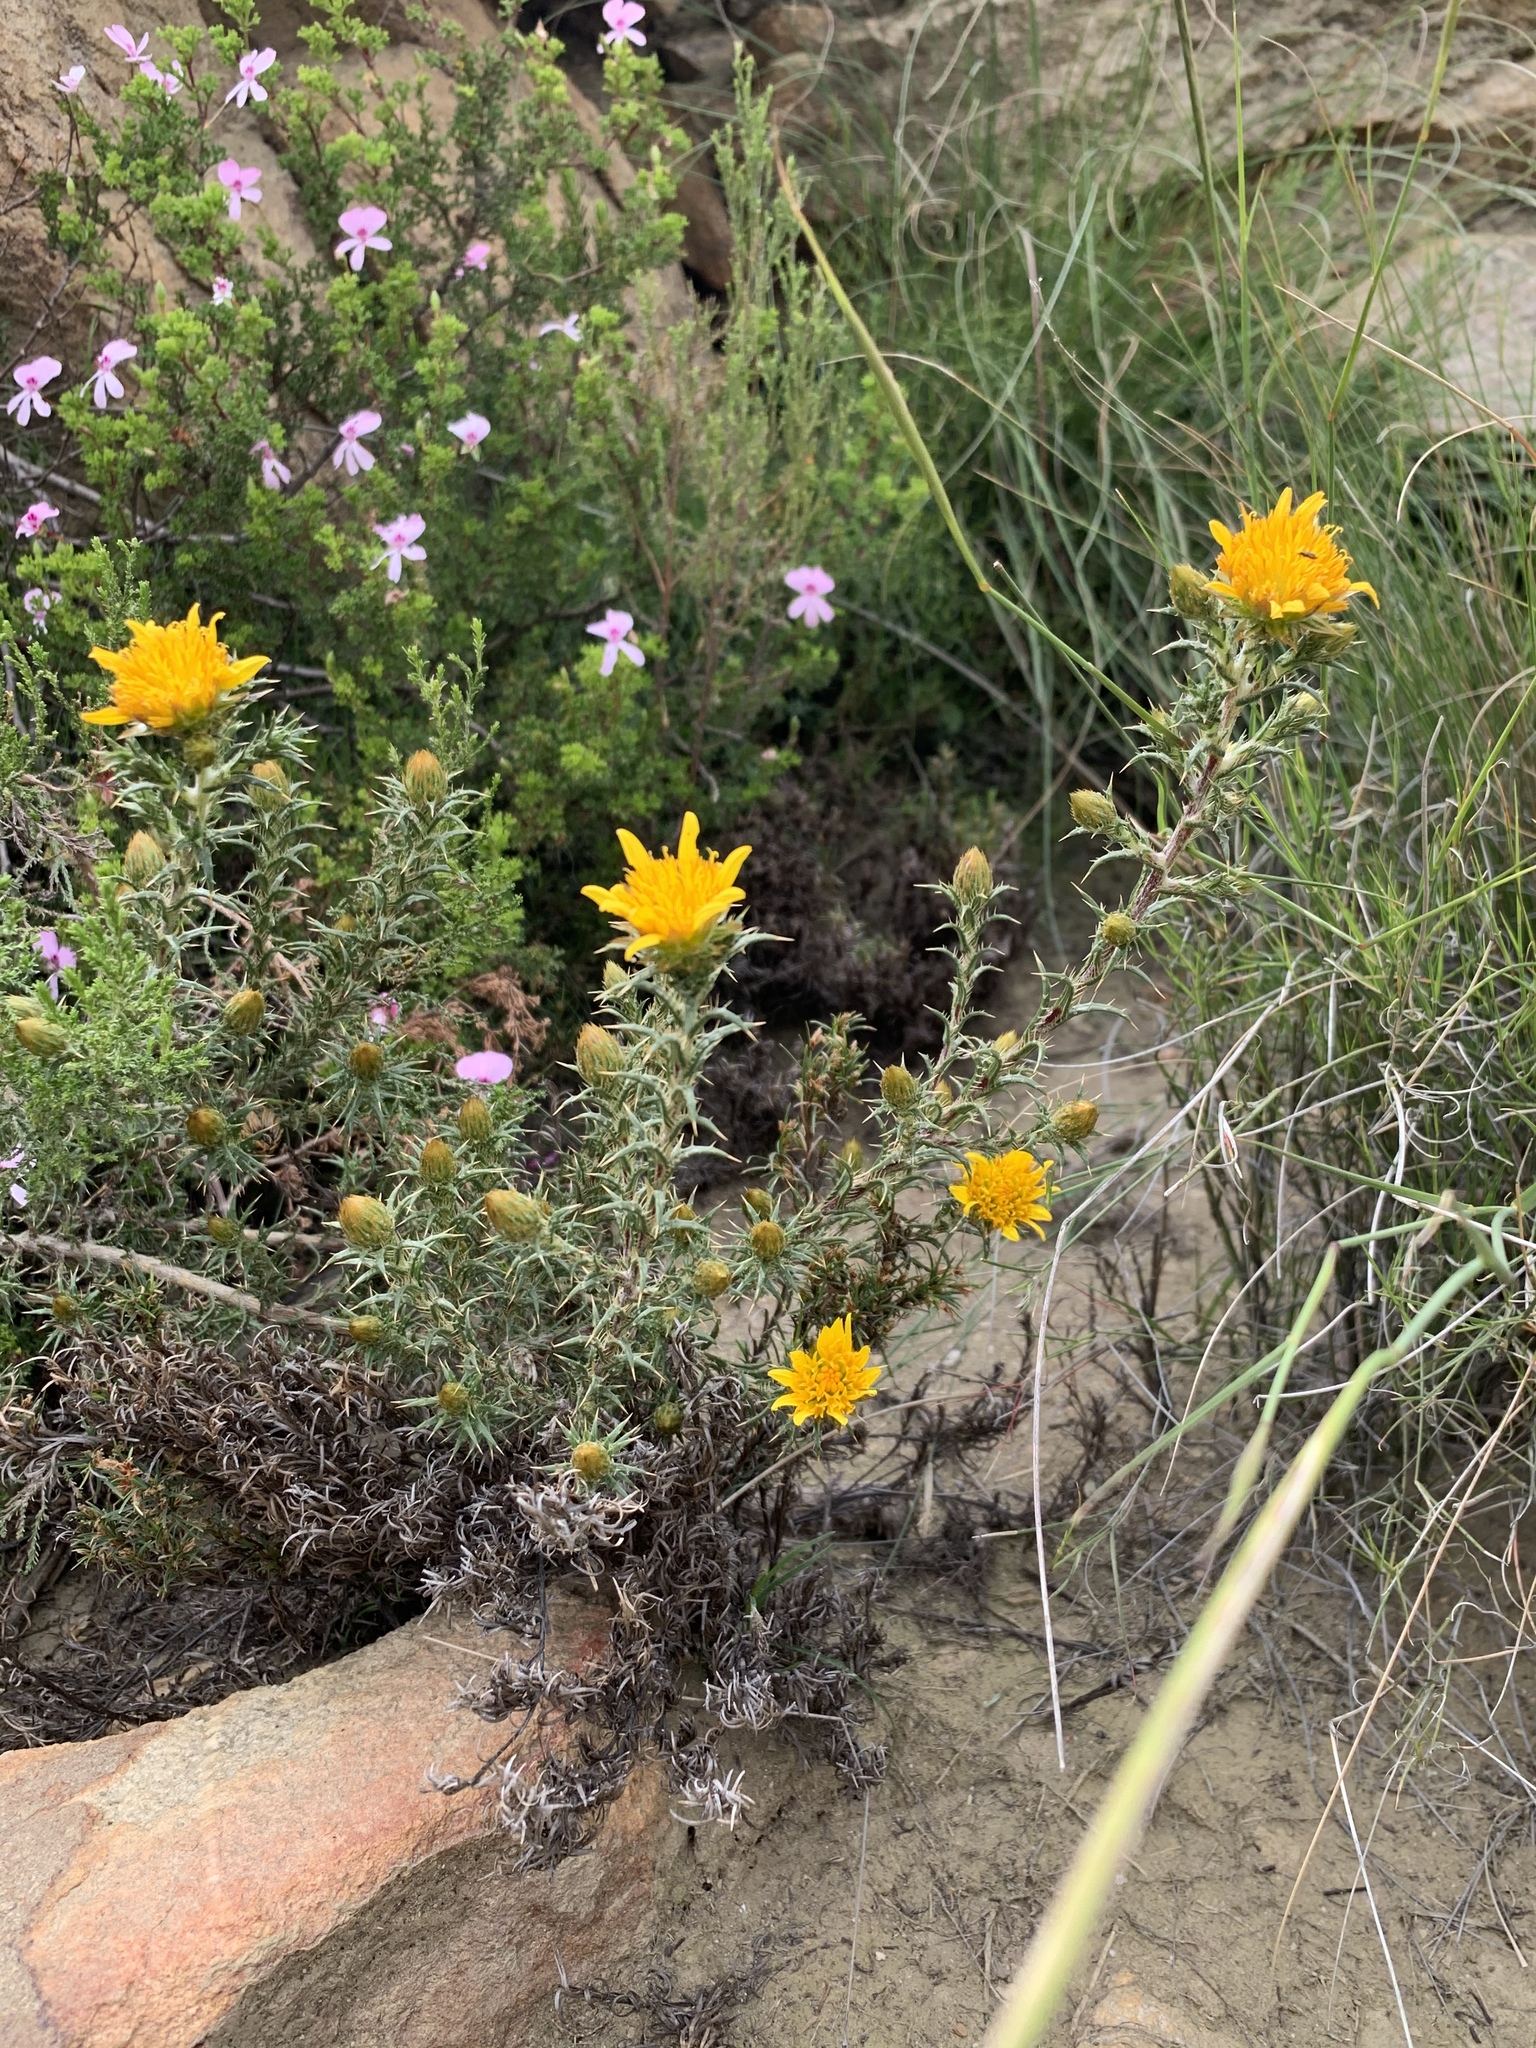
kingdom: Plantae
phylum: Tracheophyta
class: Magnoliopsida
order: Asterales
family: Asteraceae
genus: Cullumia
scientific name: Cullumia bisulca
